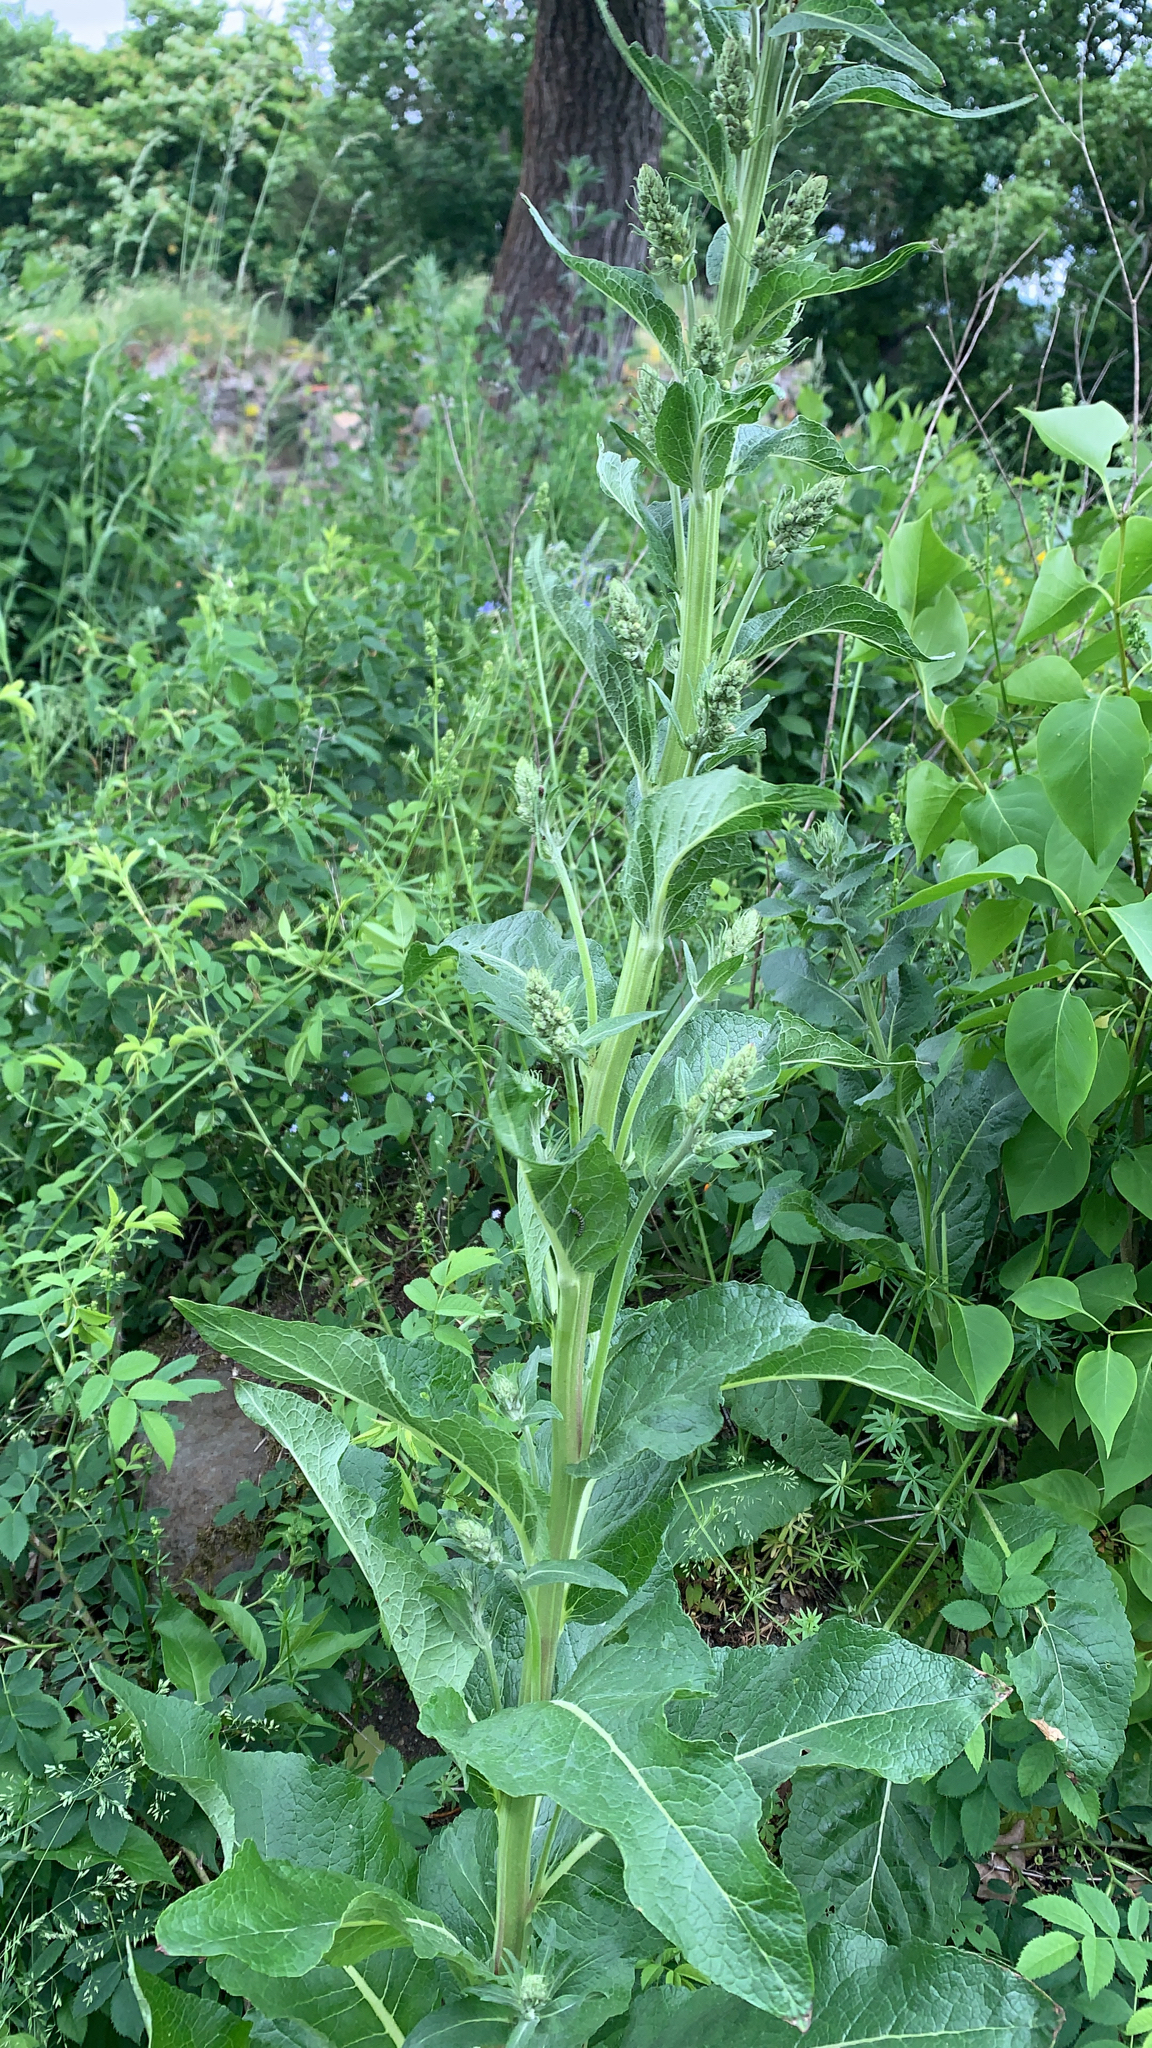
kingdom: Plantae
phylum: Tracheophyta
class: Magnoliopsida
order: Lamiales
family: Scrophulariaceae
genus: Verbascum
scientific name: Verbascum lychnitis
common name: White mullein
